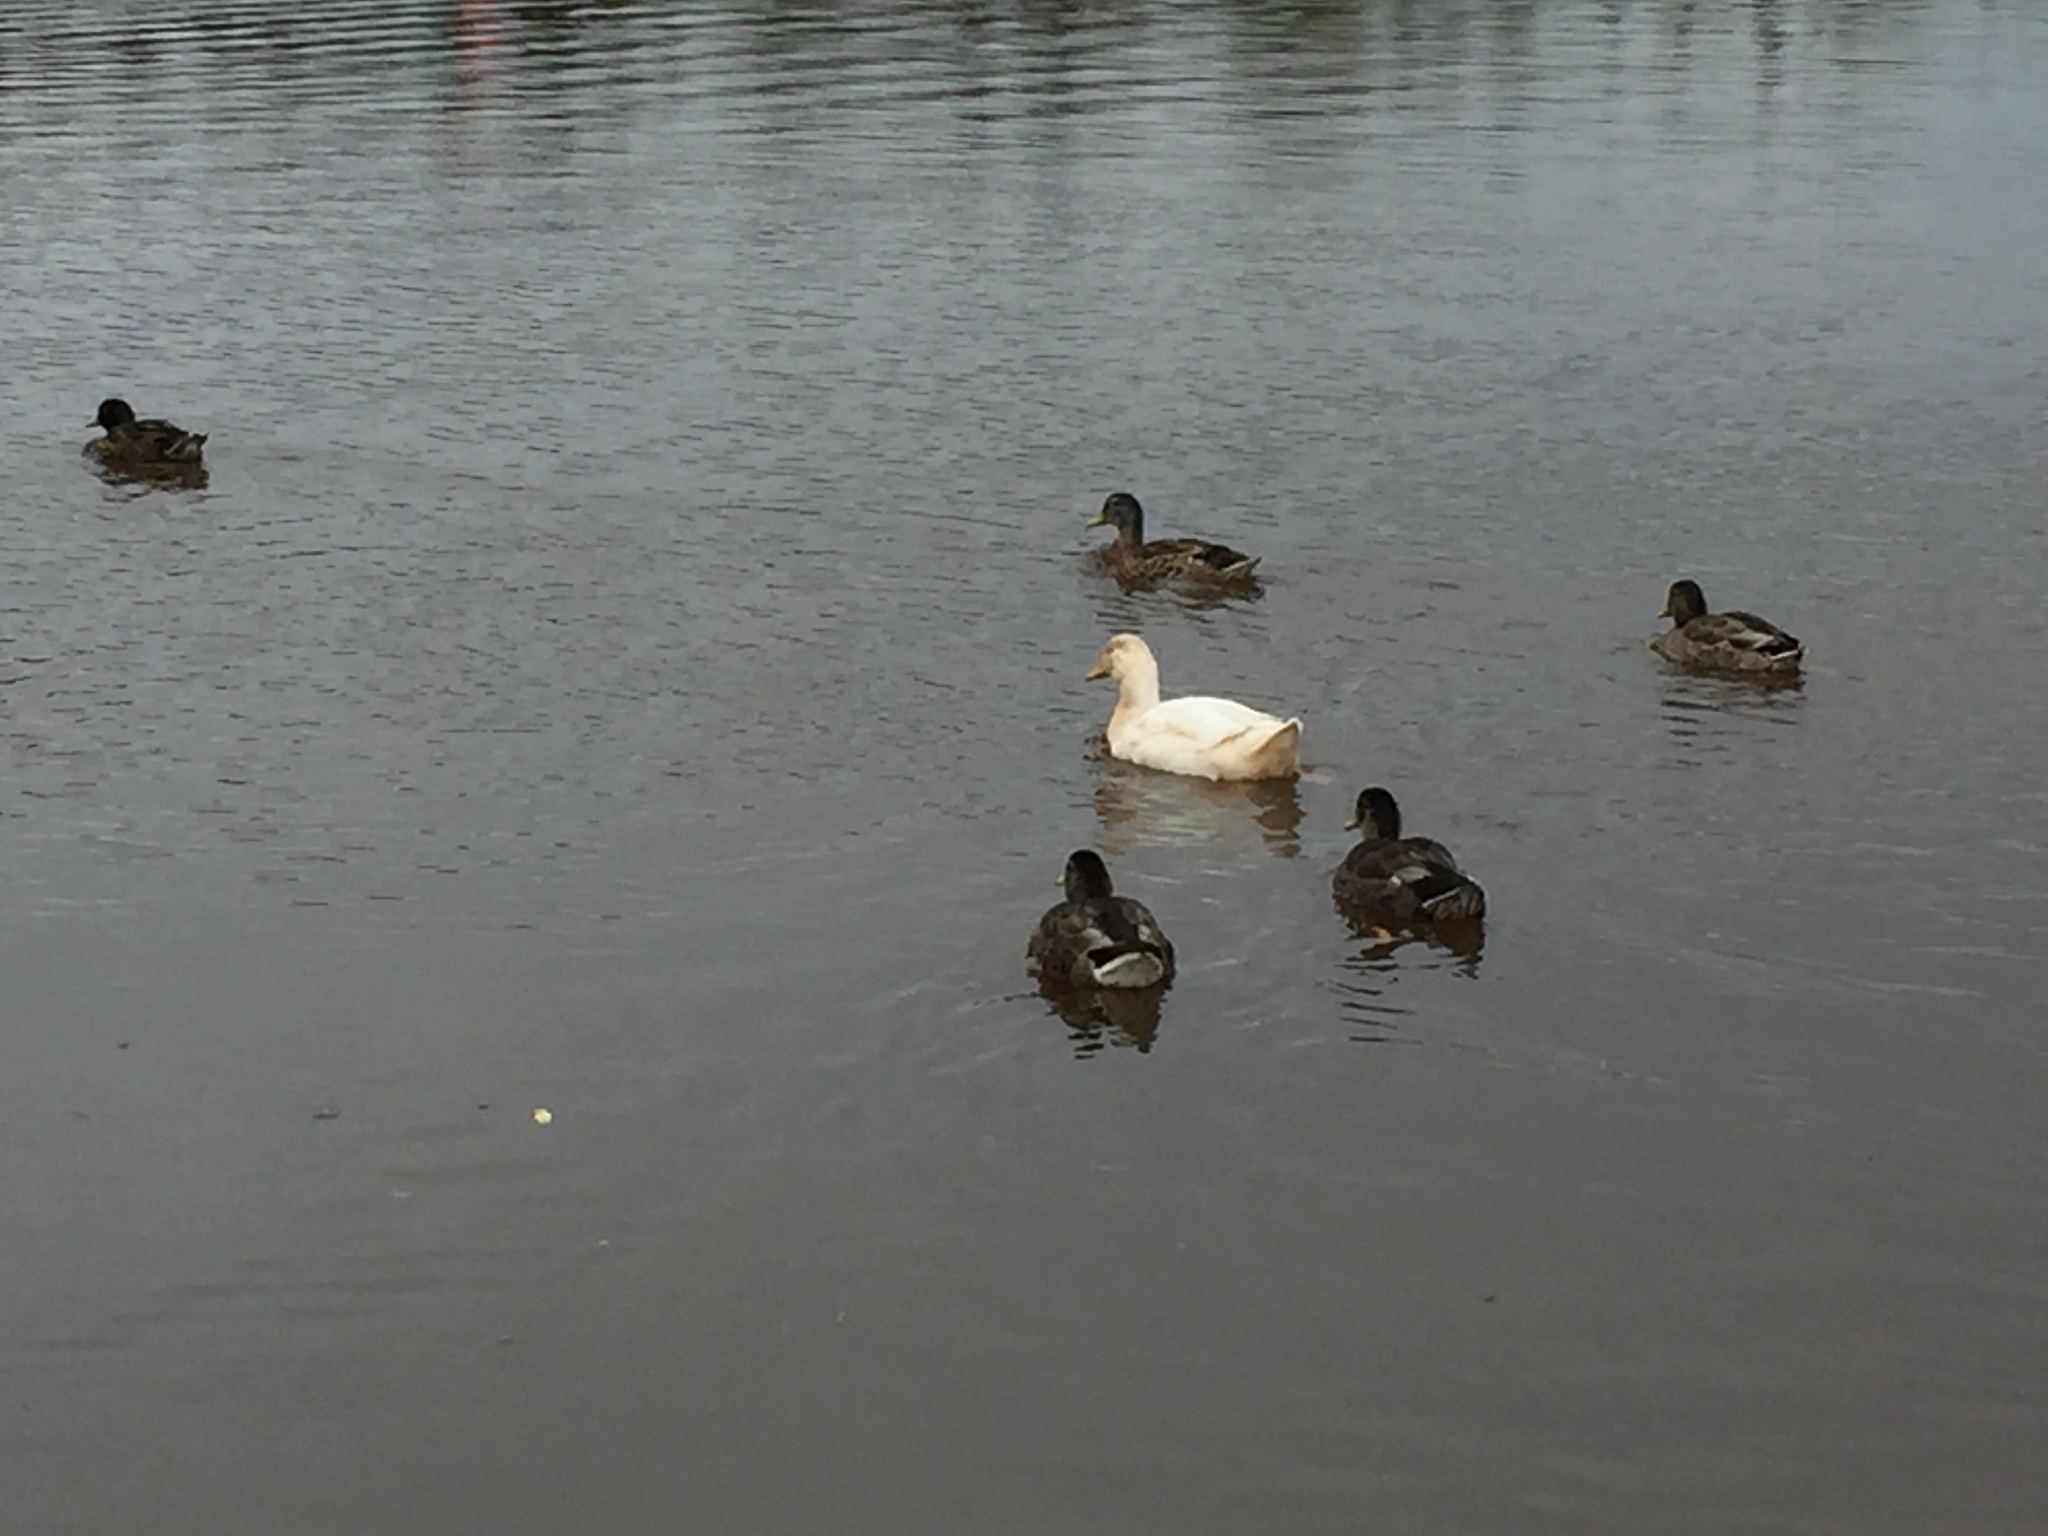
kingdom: Animalia
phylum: Chordata
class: Aves
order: Anseriformes
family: Anatidae
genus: Anas
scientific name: Anas platyrhynchos
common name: Mallard
